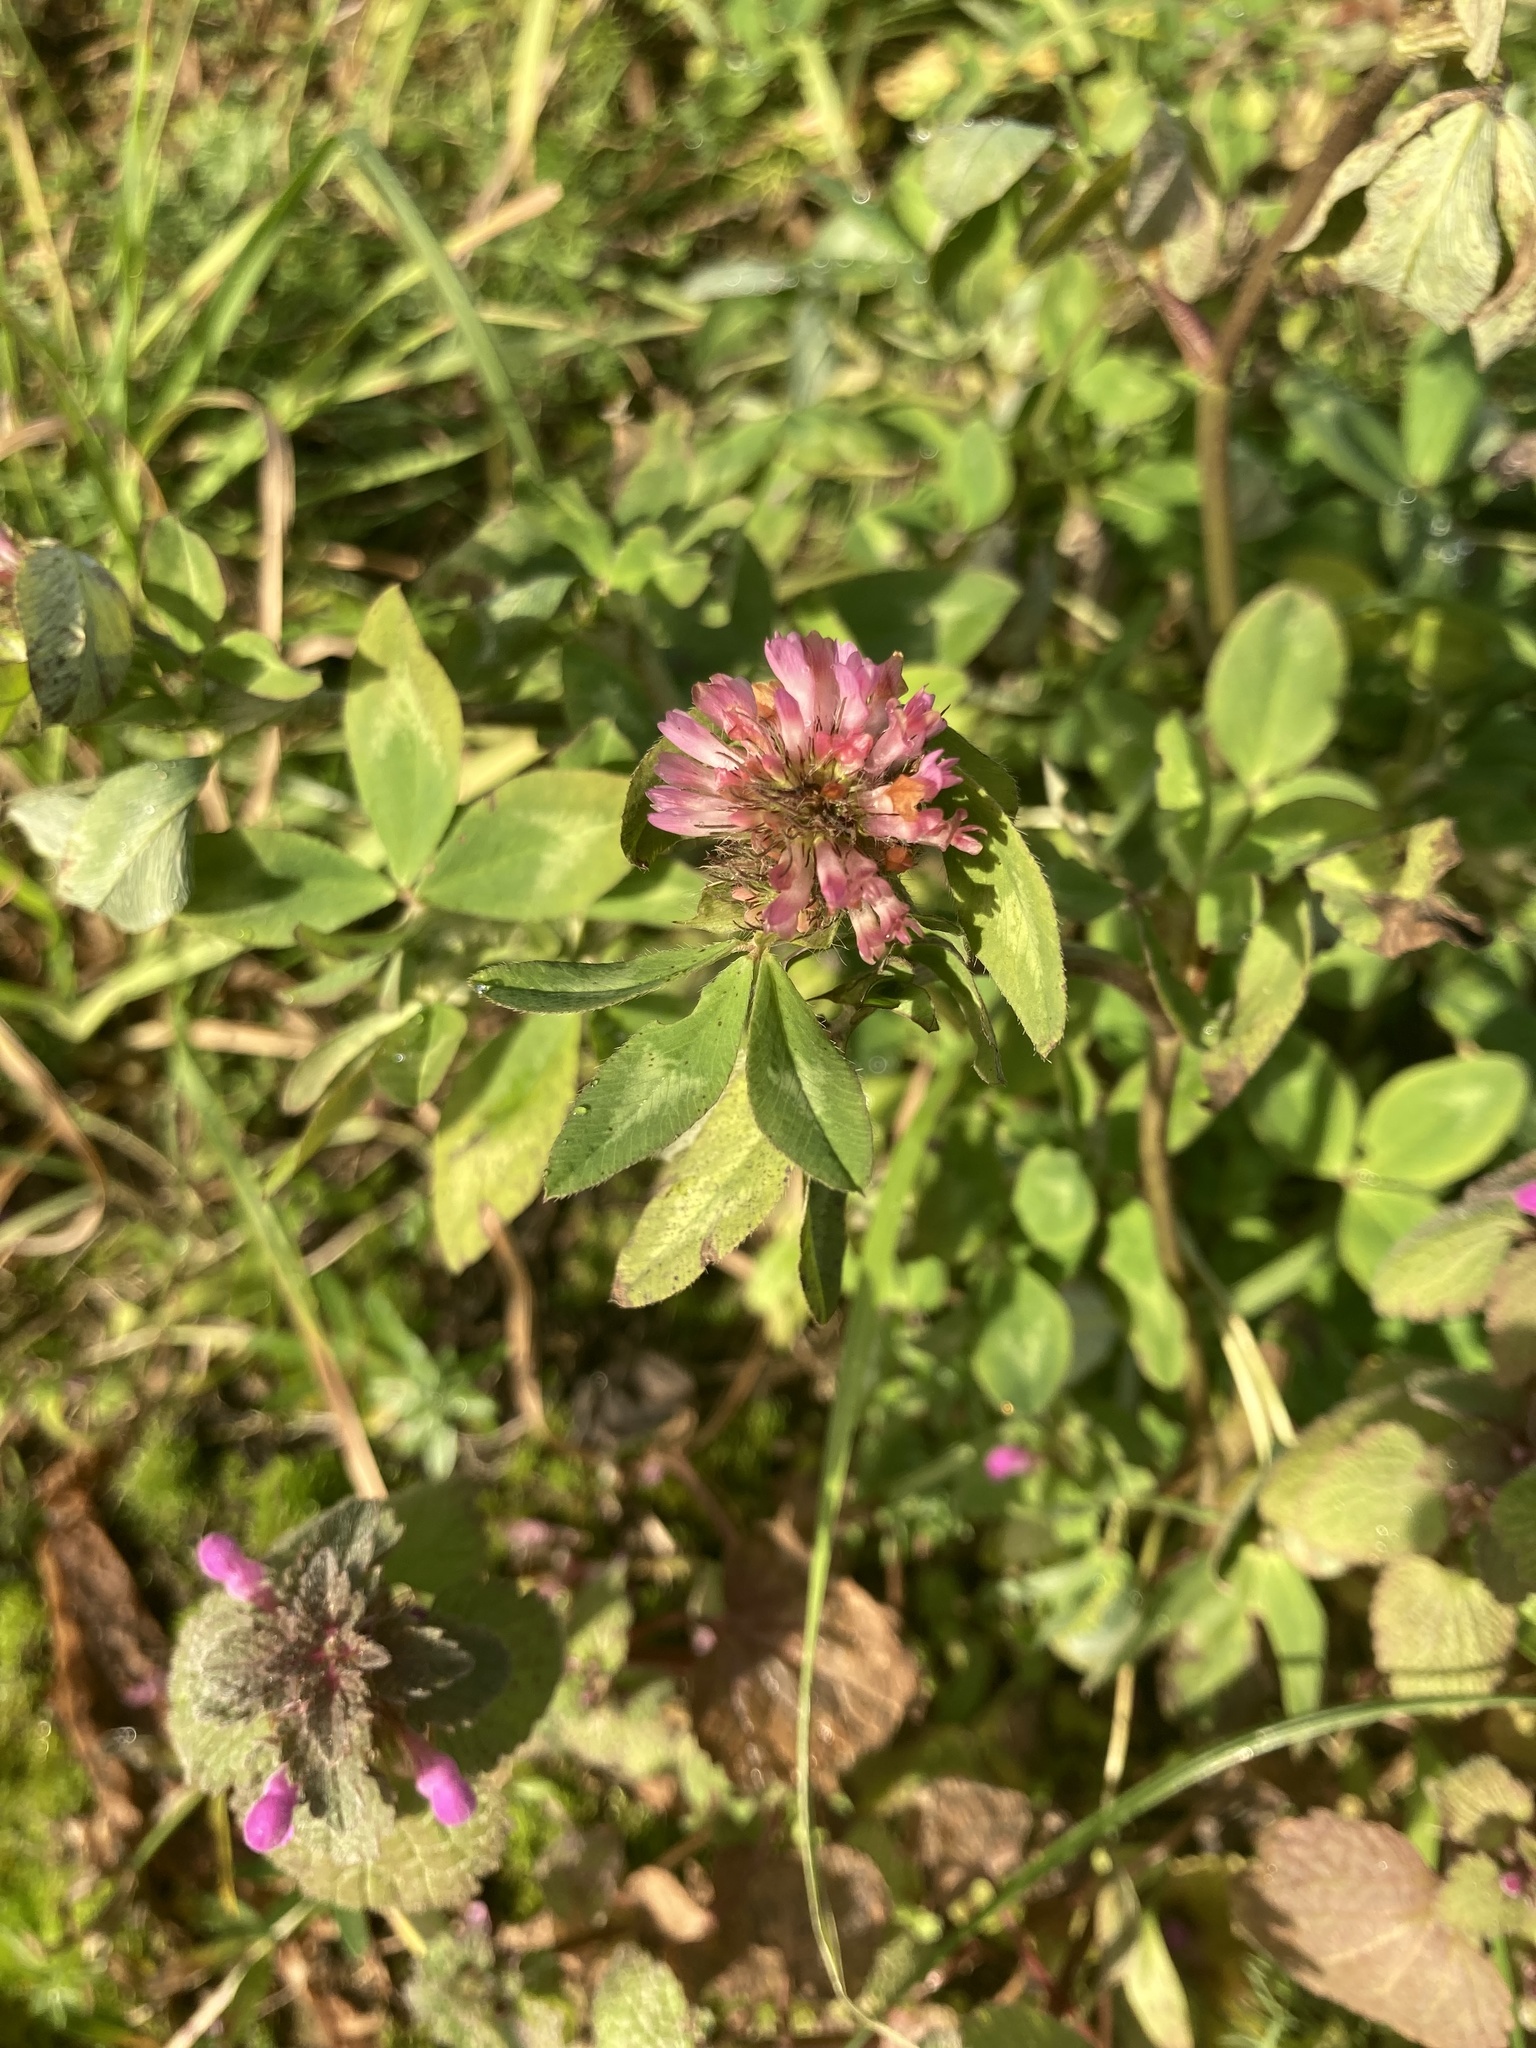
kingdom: Plantae
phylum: Tracheophyta
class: Magnoliopsida
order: Fabales
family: Fabaceae
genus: Trifolium
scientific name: Trifolium pratense
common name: Red clover
